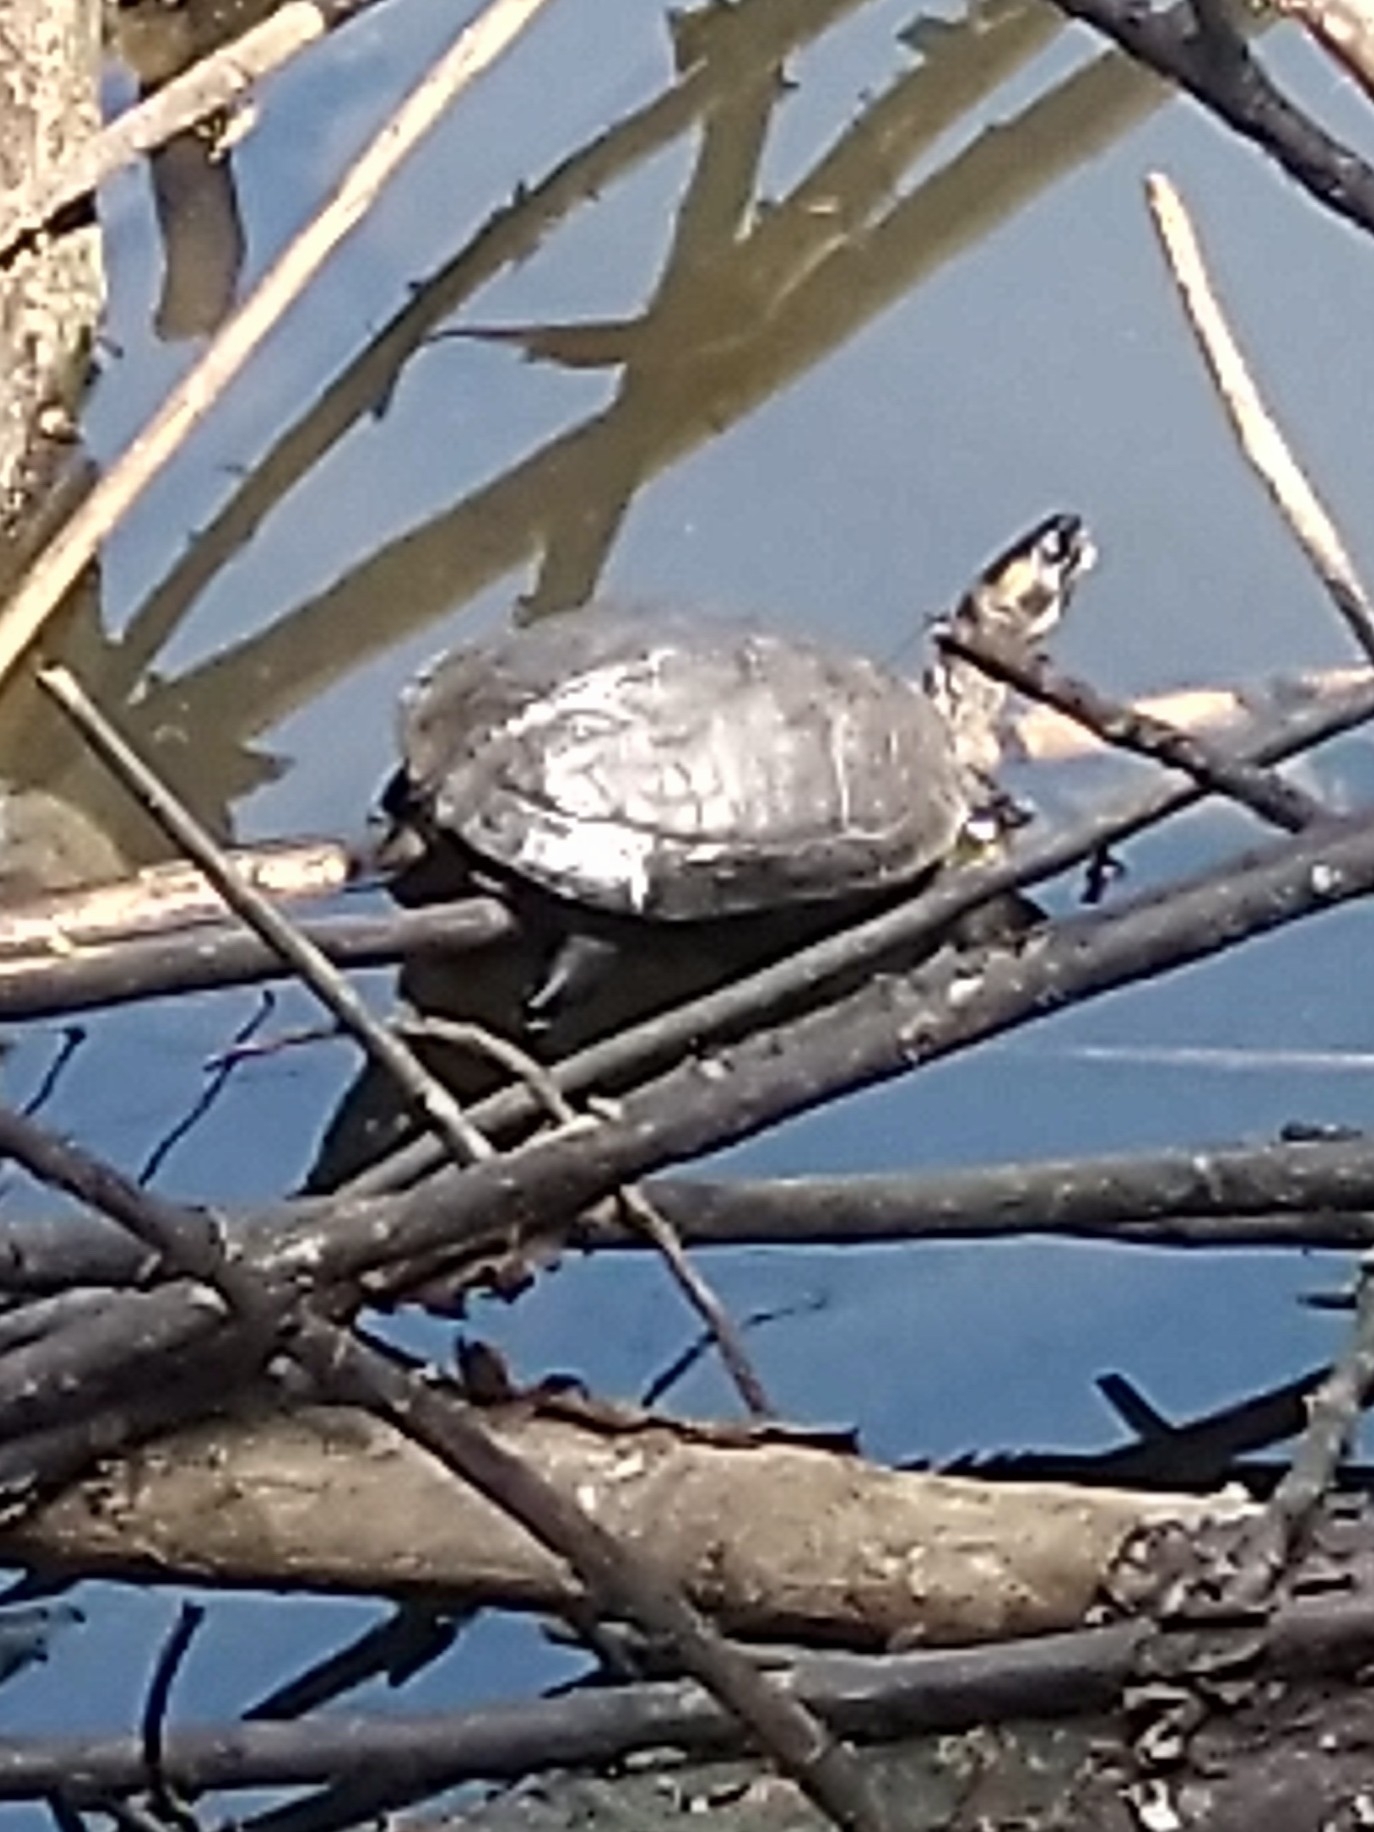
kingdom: Animalia
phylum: Chordata
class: Testudines
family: Geoemydidae
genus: Melanochelys
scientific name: Melanochelys trijuga
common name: Indian black turtle
